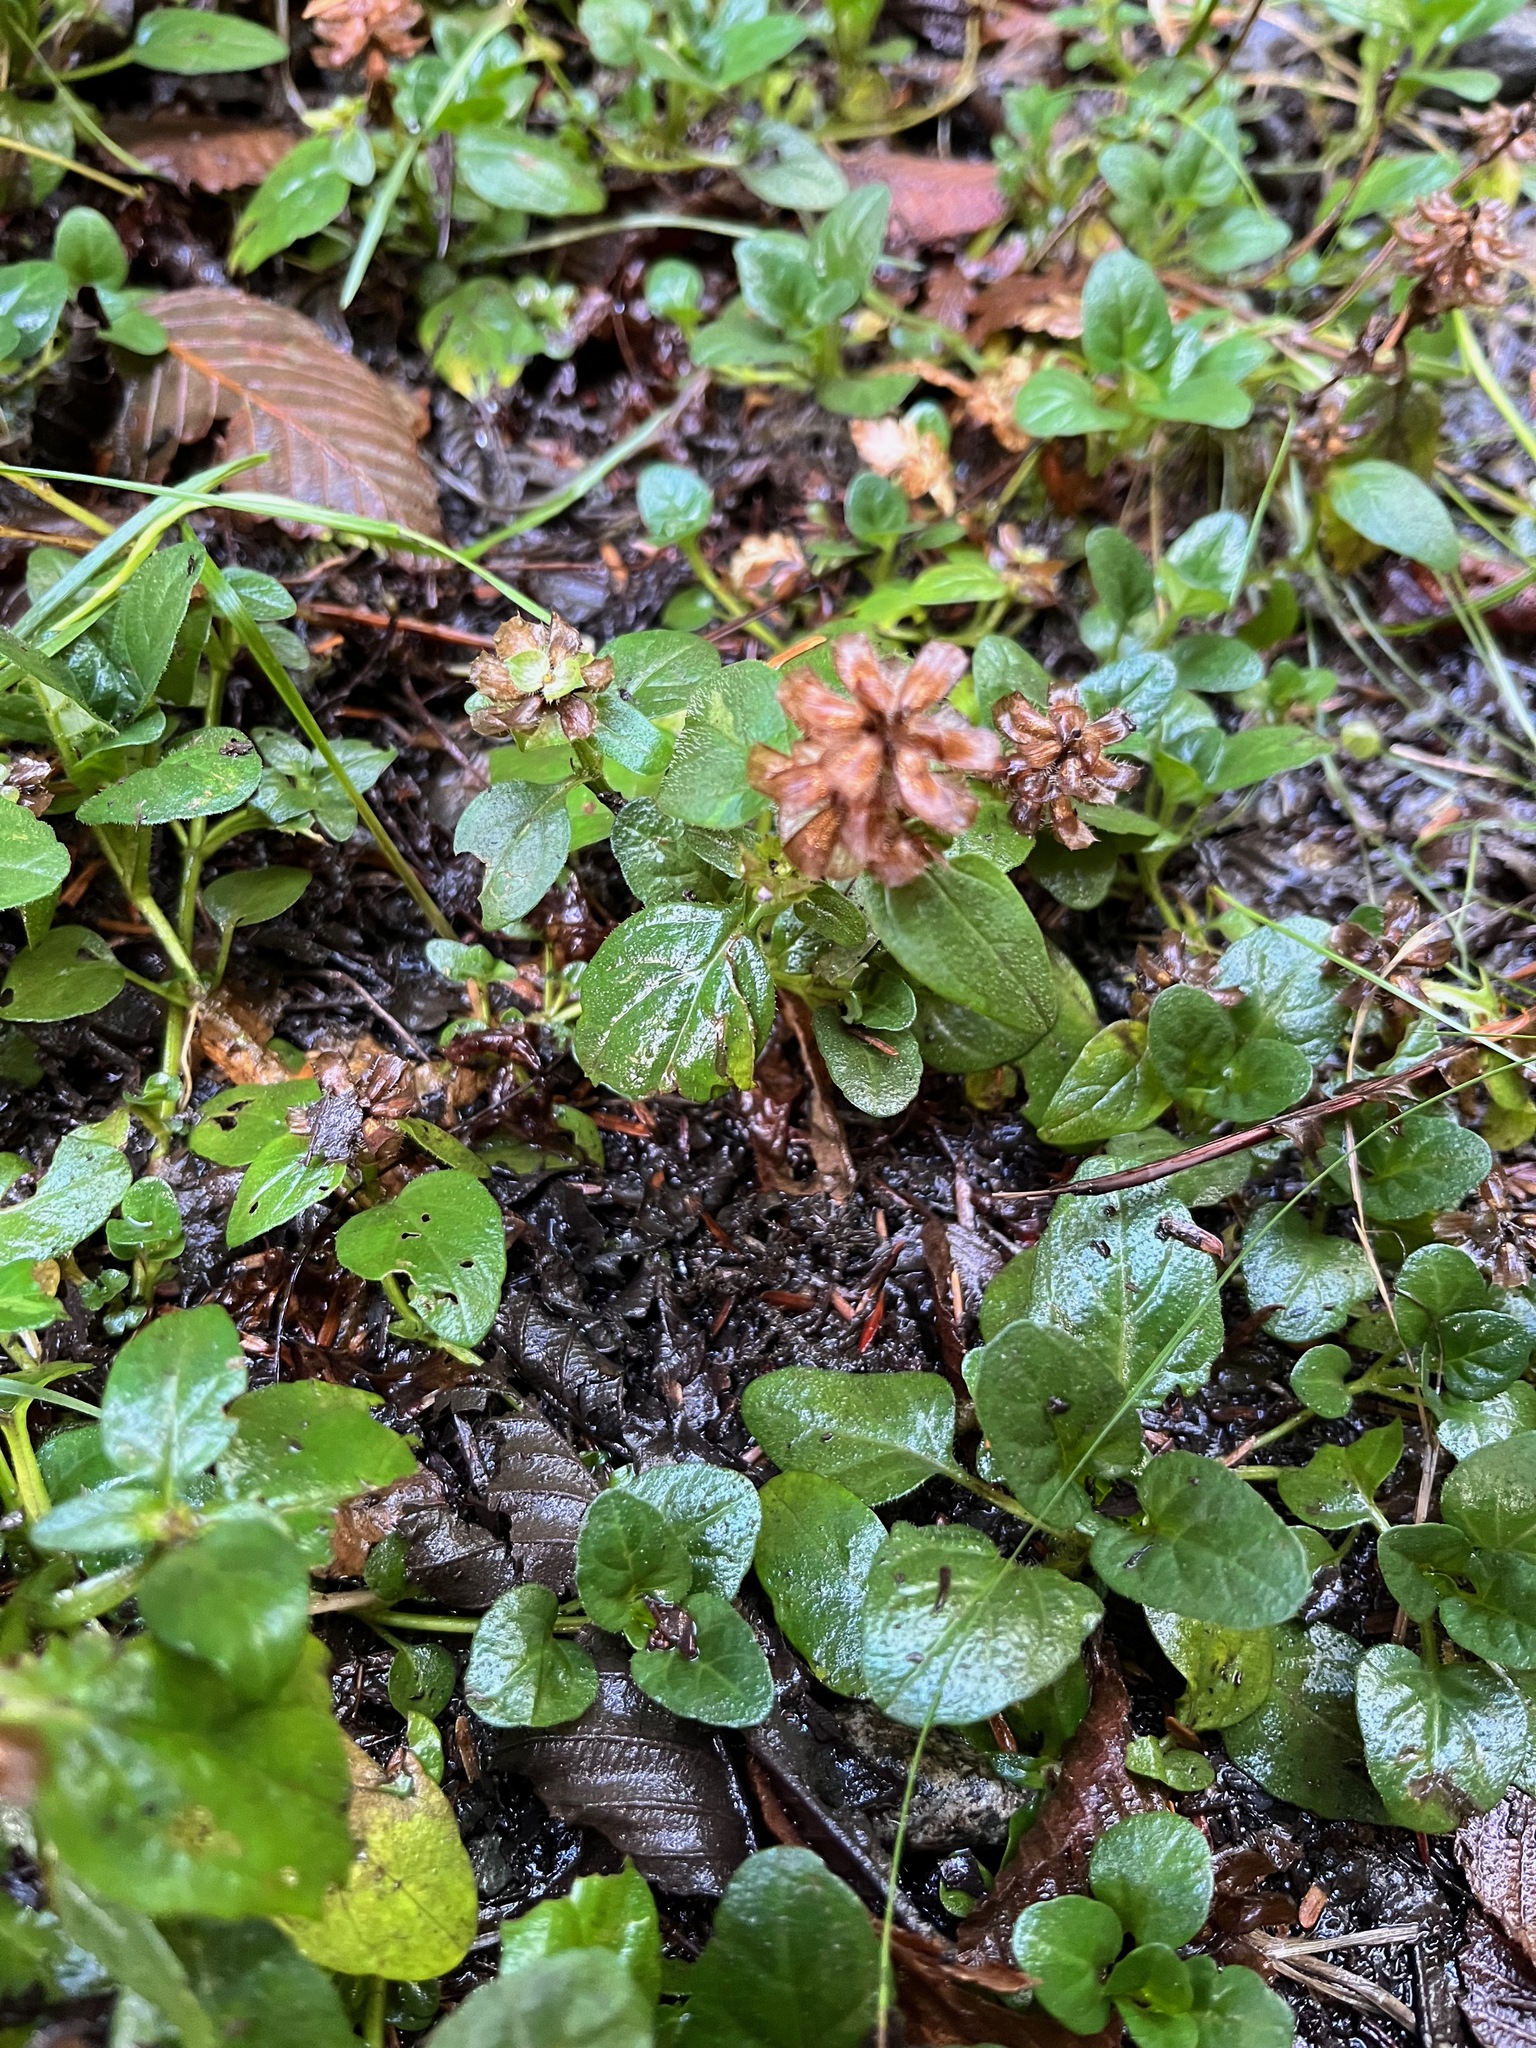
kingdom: Plantae
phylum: Tracheophyta
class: Magnoliopsida
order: Lamiales
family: Lamiaceae
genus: Prunella
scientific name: Prunella vulgaris
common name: Heal-all
